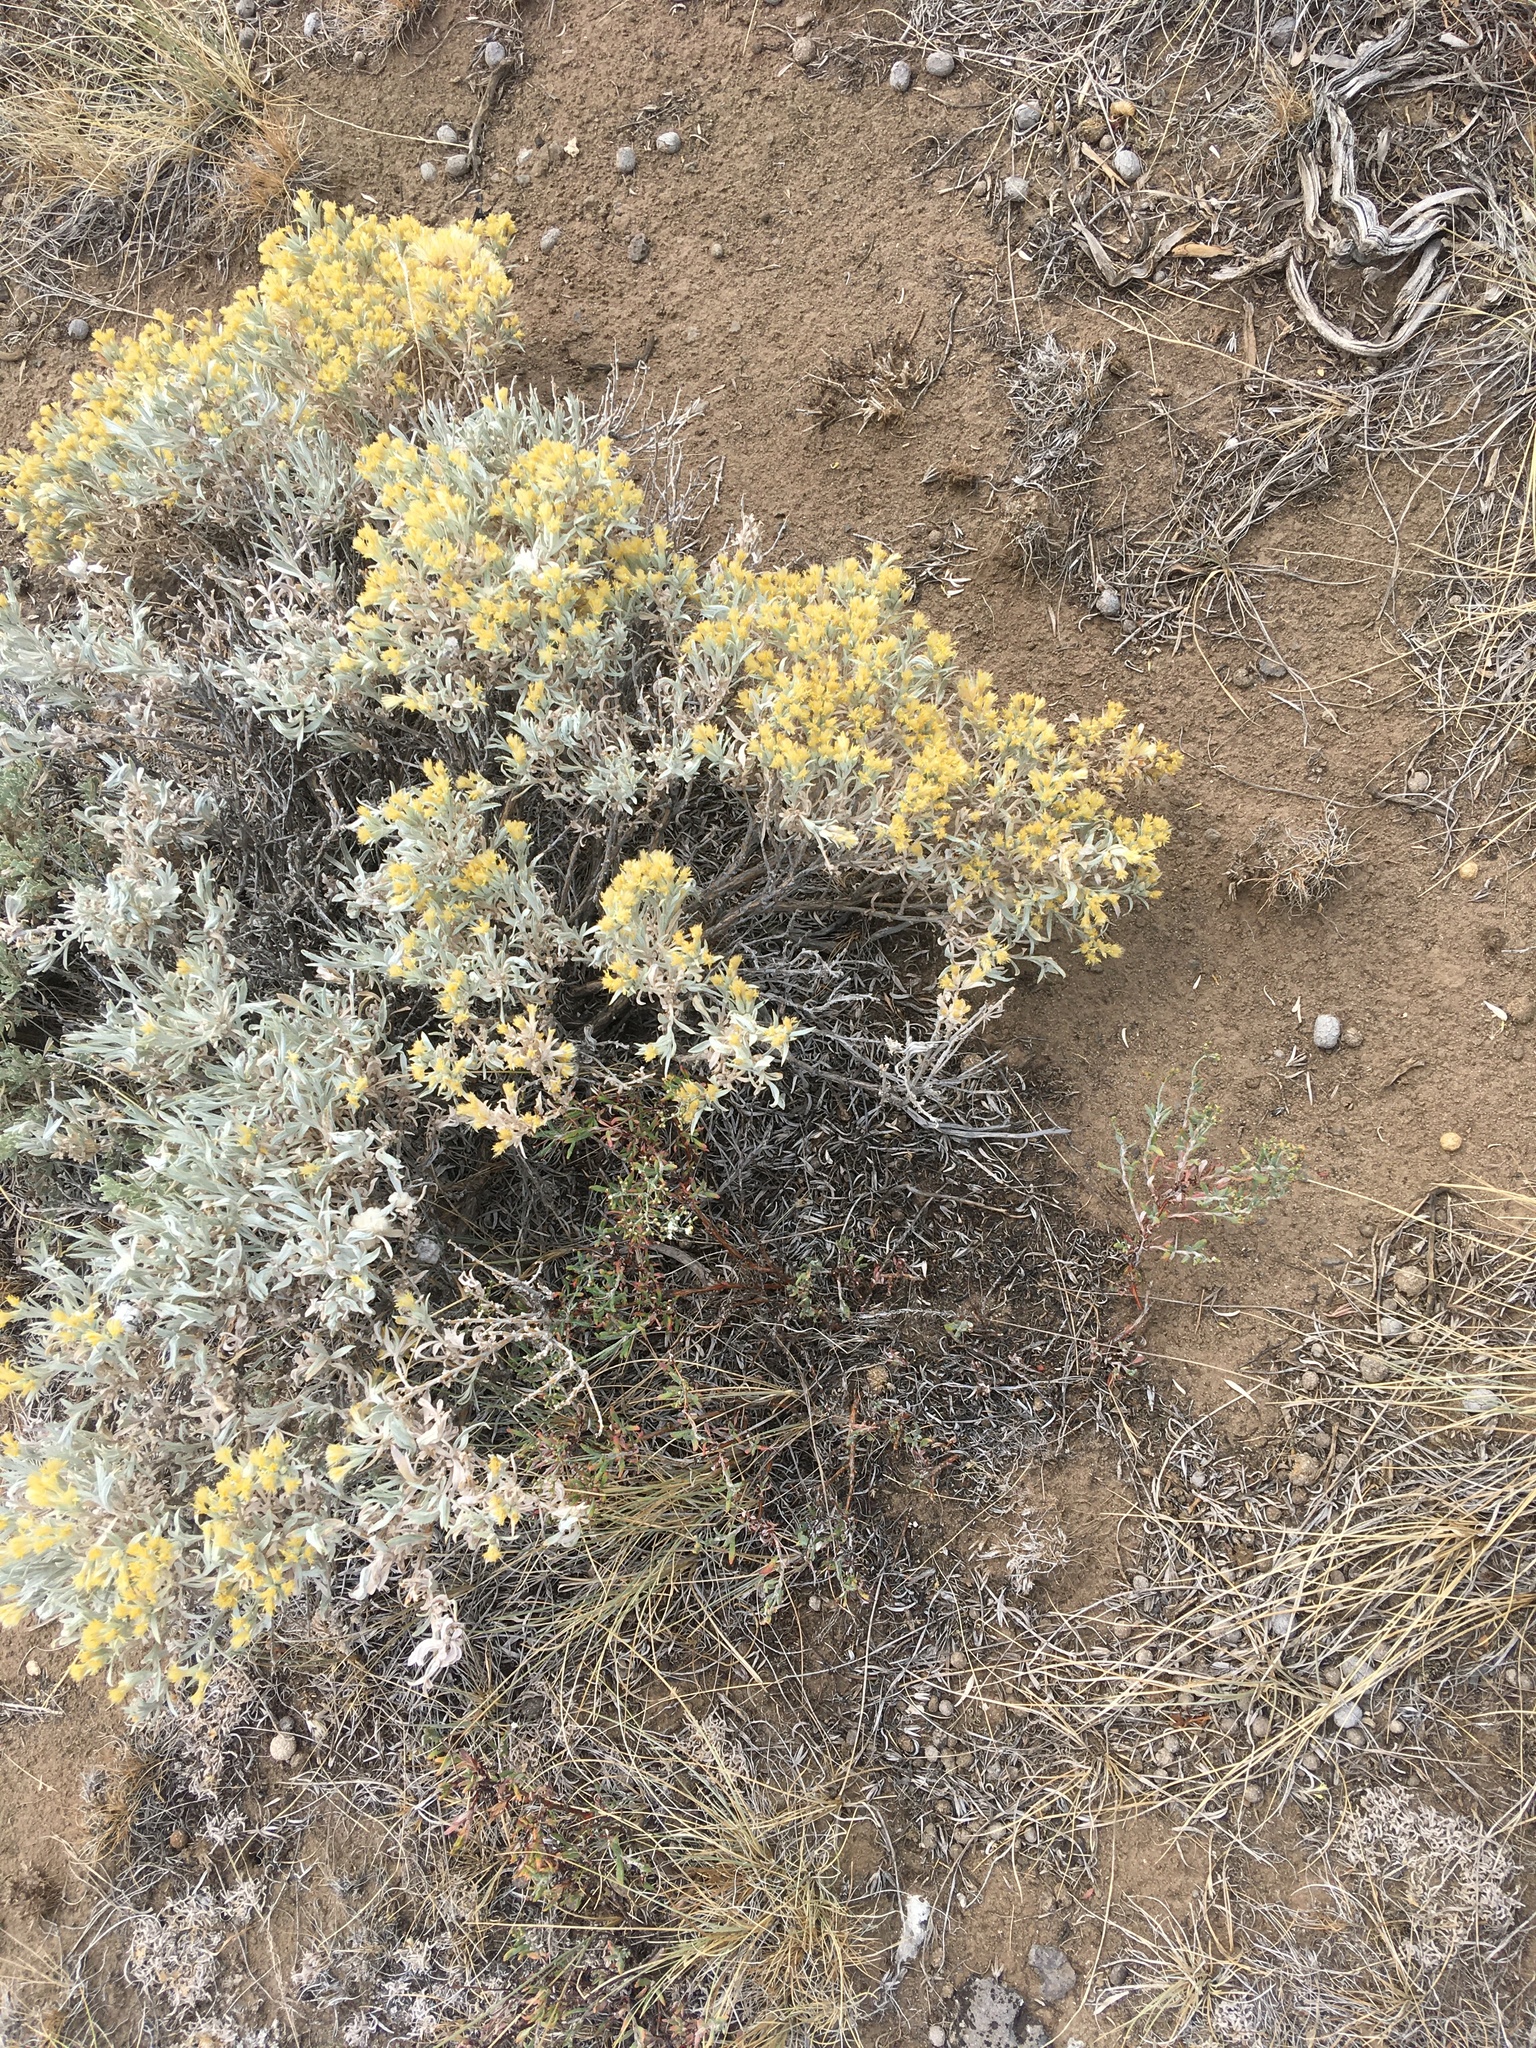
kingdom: Plantae
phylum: Tracheophyta
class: Magnoliopsida
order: Asterales
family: Asteraceae
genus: Tetradymia
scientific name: Tetradymia canescens
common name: Spineless horsebrush
